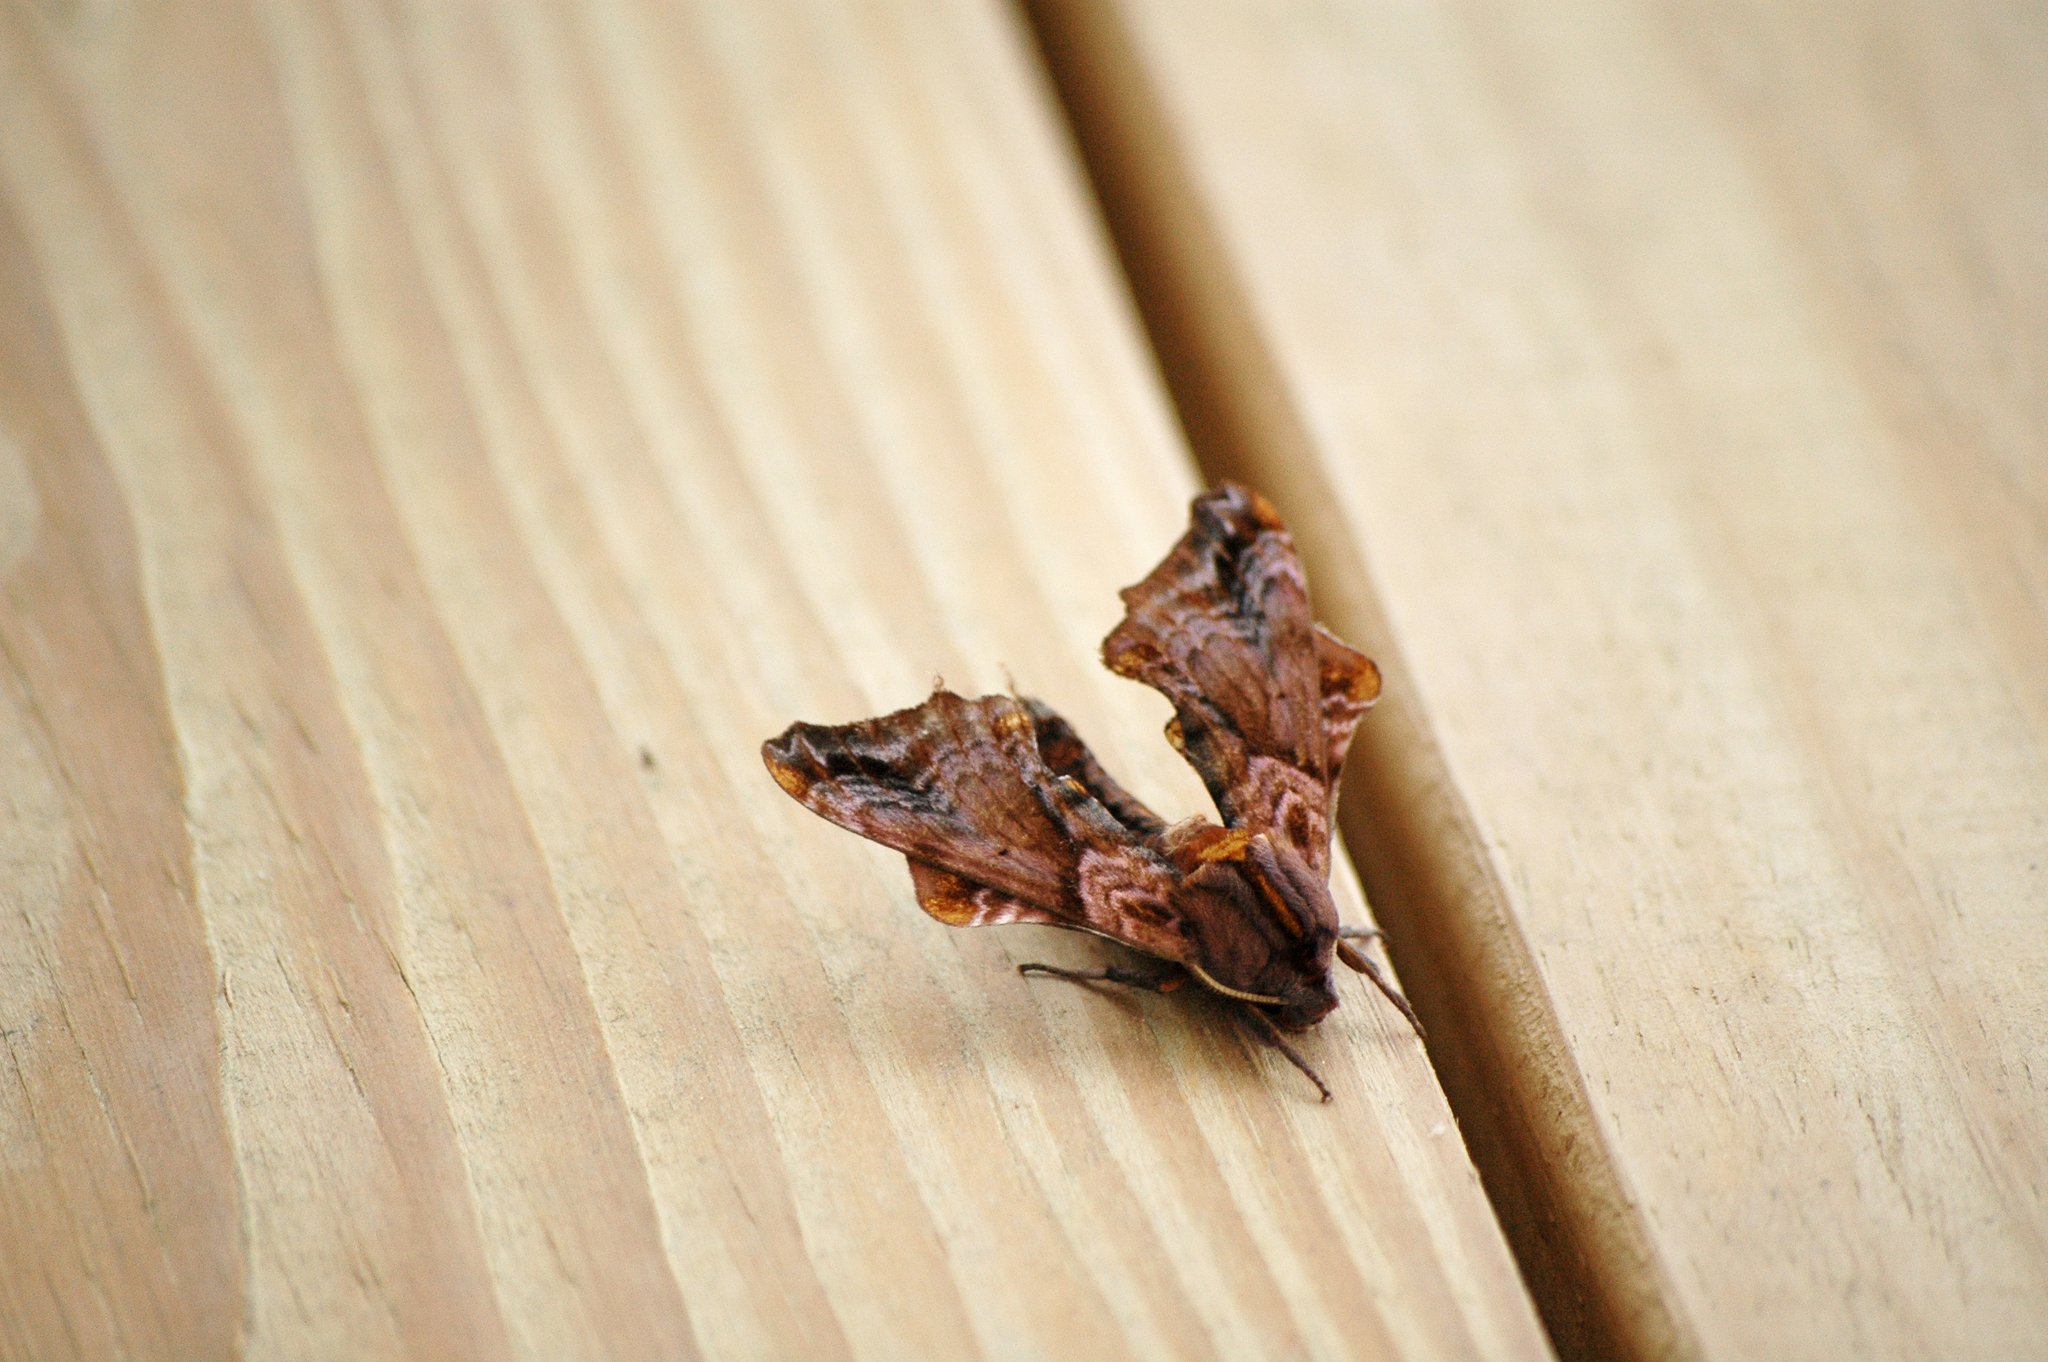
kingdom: Animalia
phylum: Arthropoda
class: Insecta
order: Lepidoptera
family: Sphingidae
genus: Paonias
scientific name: Paonias myops
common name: Small-eyed sphinx
